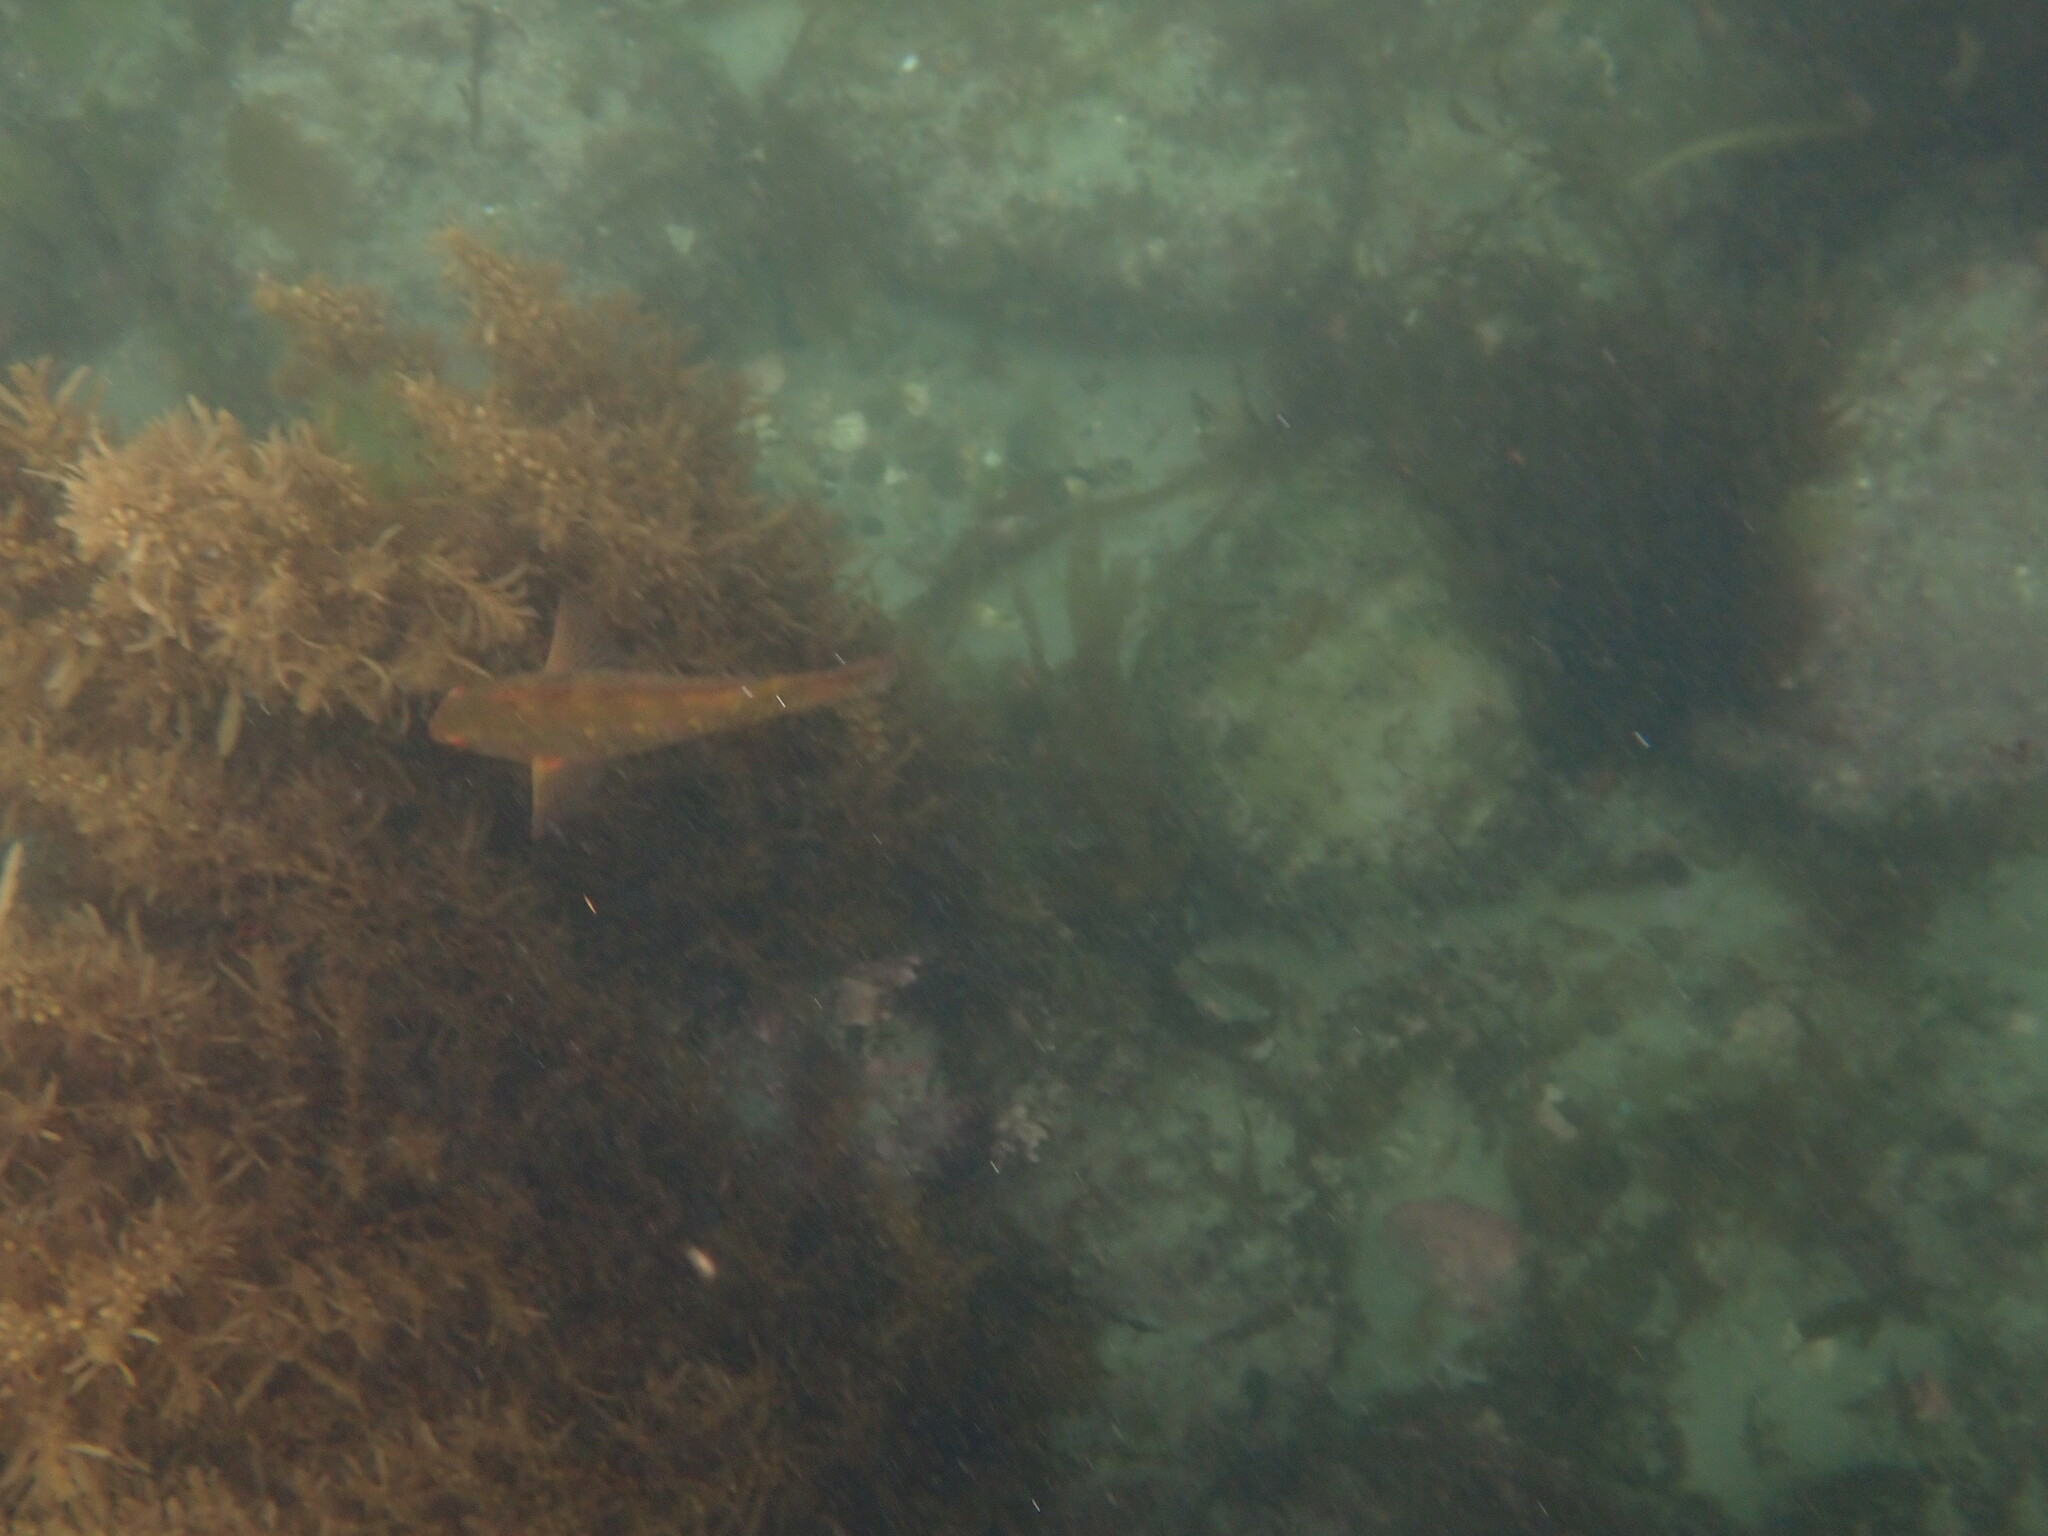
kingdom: Animalia
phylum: Chordata
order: Perciformes
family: Labridae
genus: Notolabrus
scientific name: Notolabrus fucicola
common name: Banded parrotfish
